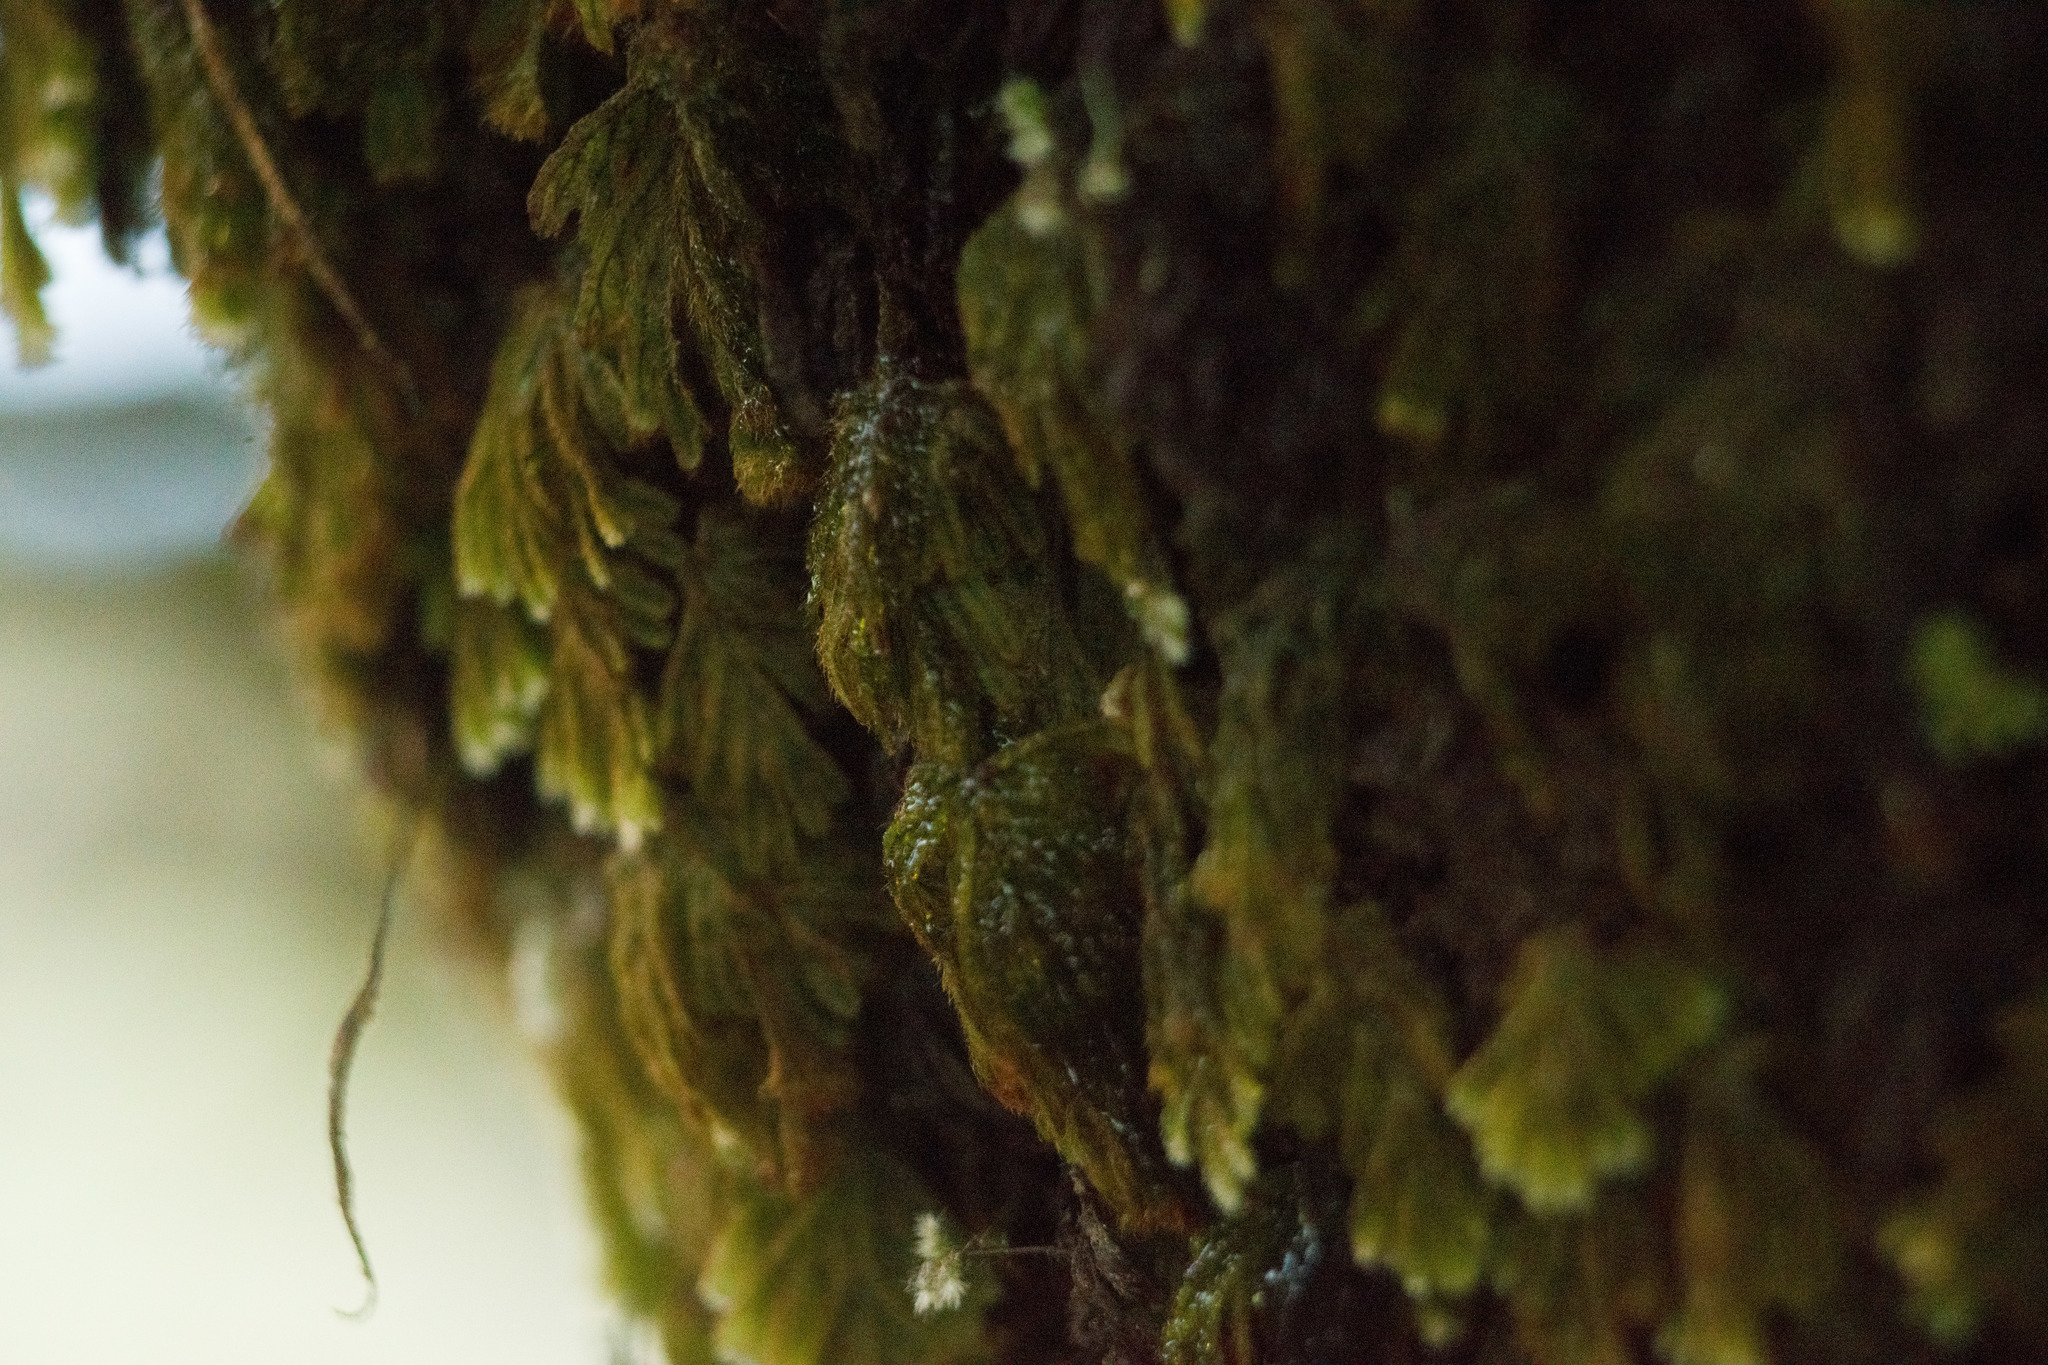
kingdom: Plantae
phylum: Tracheophyta
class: Polypodiopsida
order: Hymenophyllales
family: Hymenophyllaceae
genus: Hymenophyllum
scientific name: Hymenophyllum obtusum
